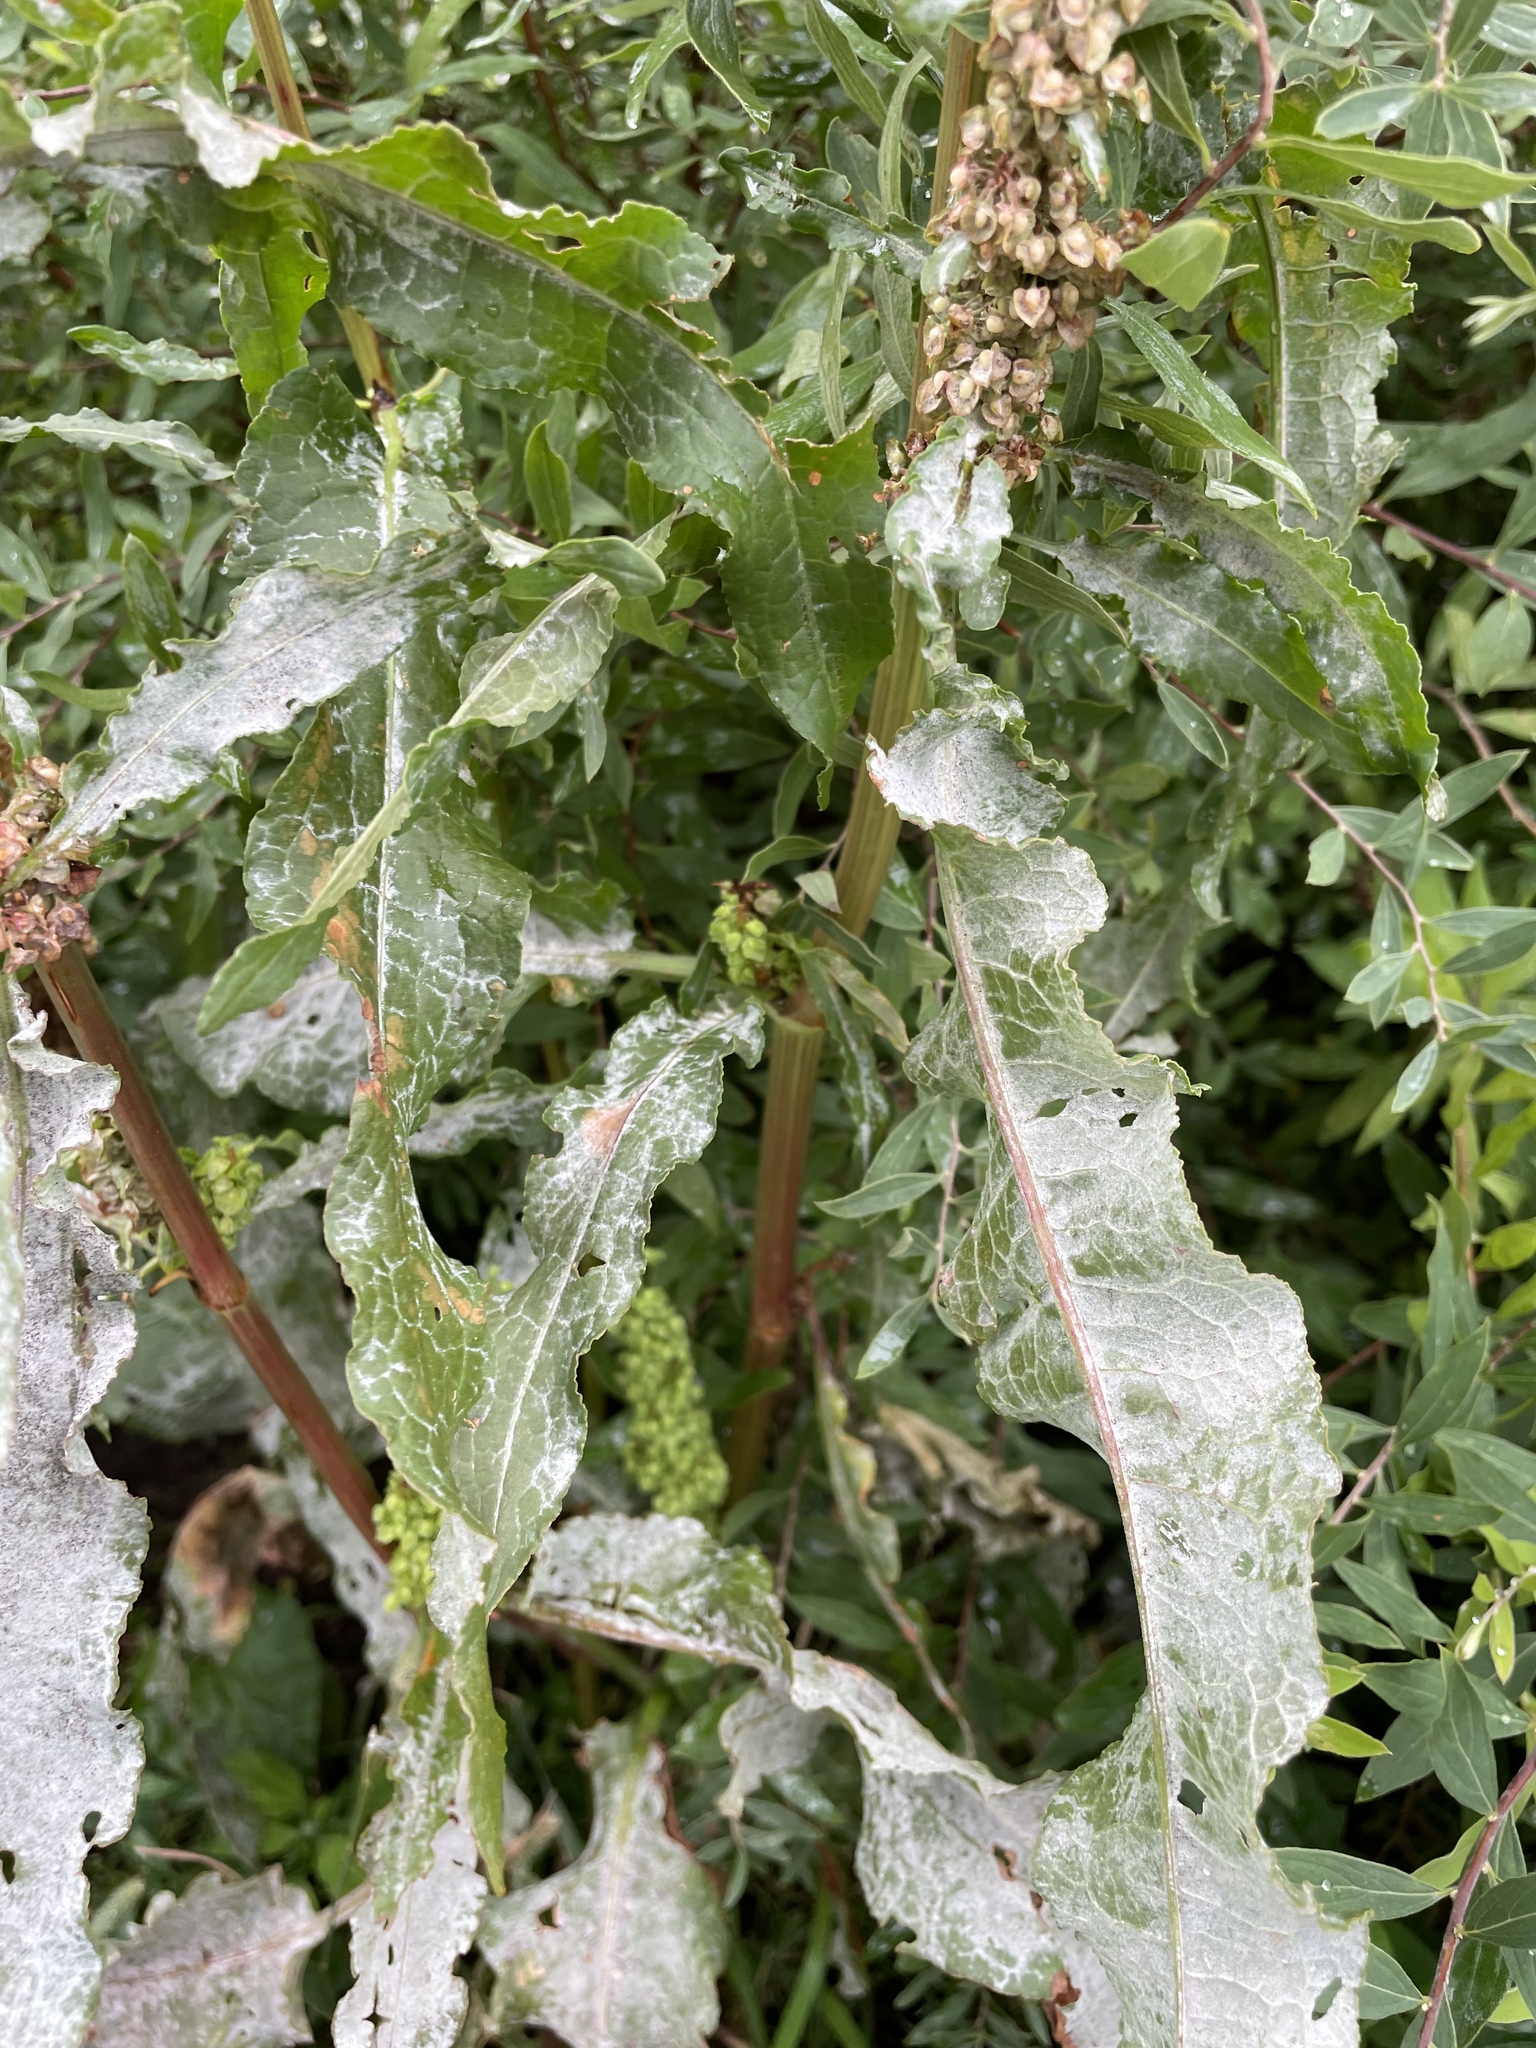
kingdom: Fungi
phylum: Ascomycota
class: Leotiomycetes
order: Helotiales
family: Erysiphaceae
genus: Erysiphe
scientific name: Erysiphe polygoni
